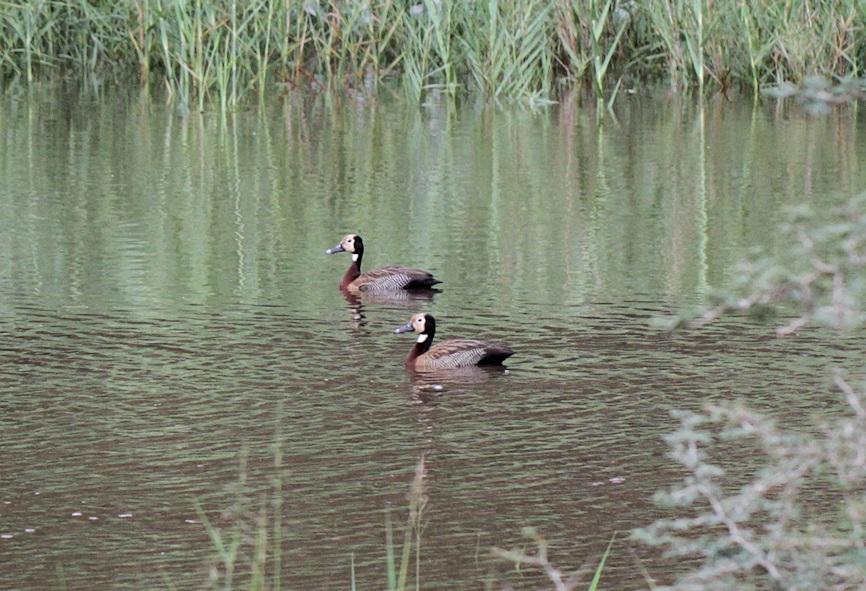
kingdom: Animalia
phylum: Chordata
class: Aves
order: Anseriformes
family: Anatidae
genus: Dendrocygna
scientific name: Dendrocygna viduata
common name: White-faced whistling duck
